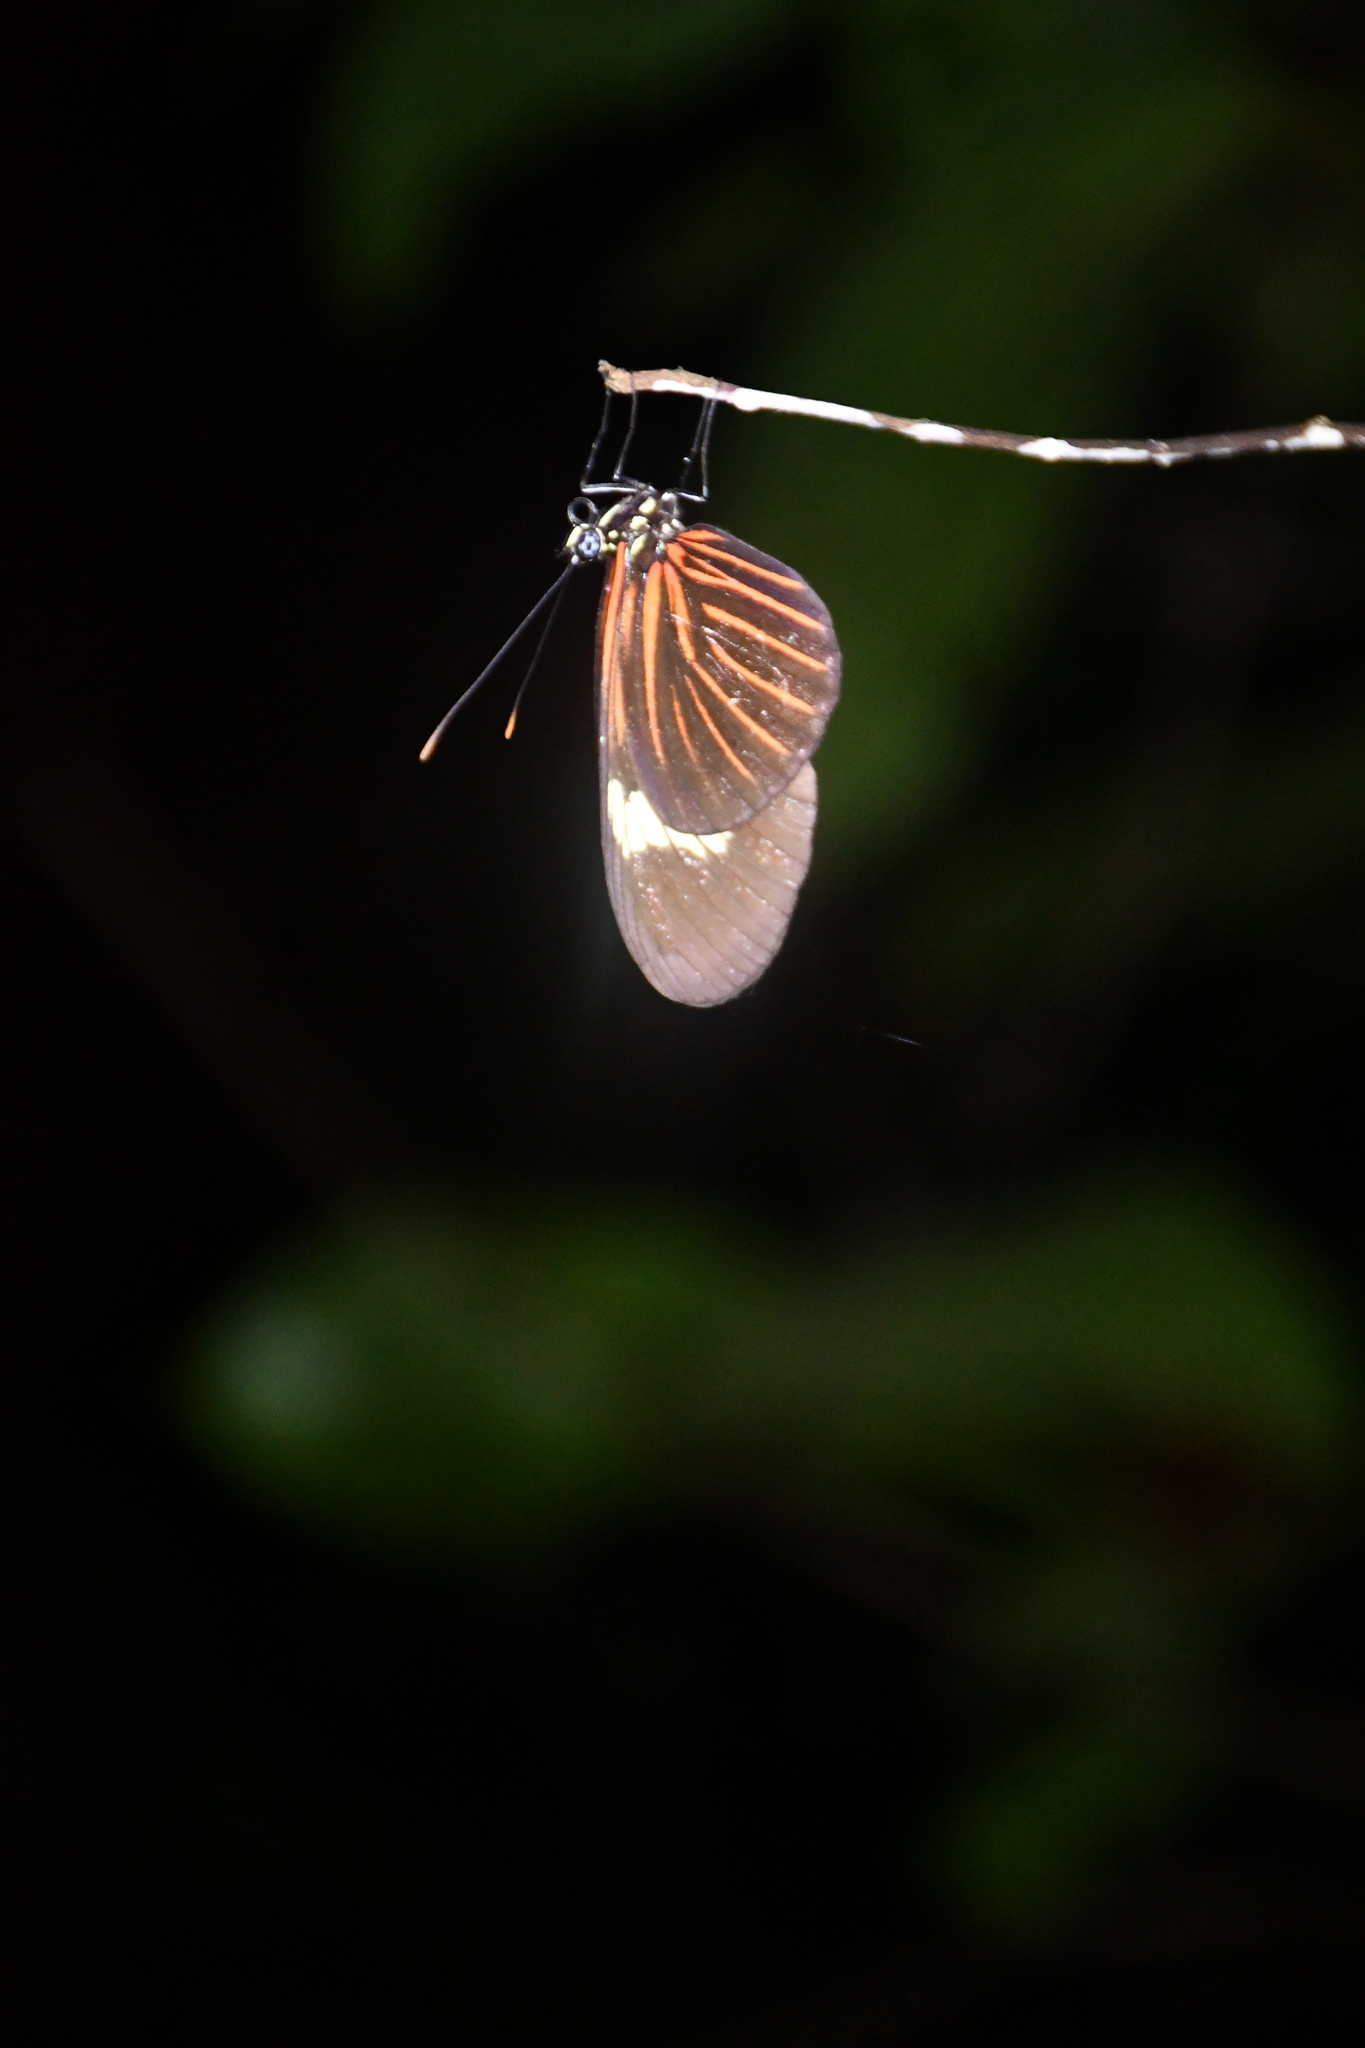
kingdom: Animalia
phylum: Arthropoda
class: Insecta
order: Lepidoptera
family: Nymphalidae
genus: Heliconius
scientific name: Heliconius erato
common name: Common patch longwing
